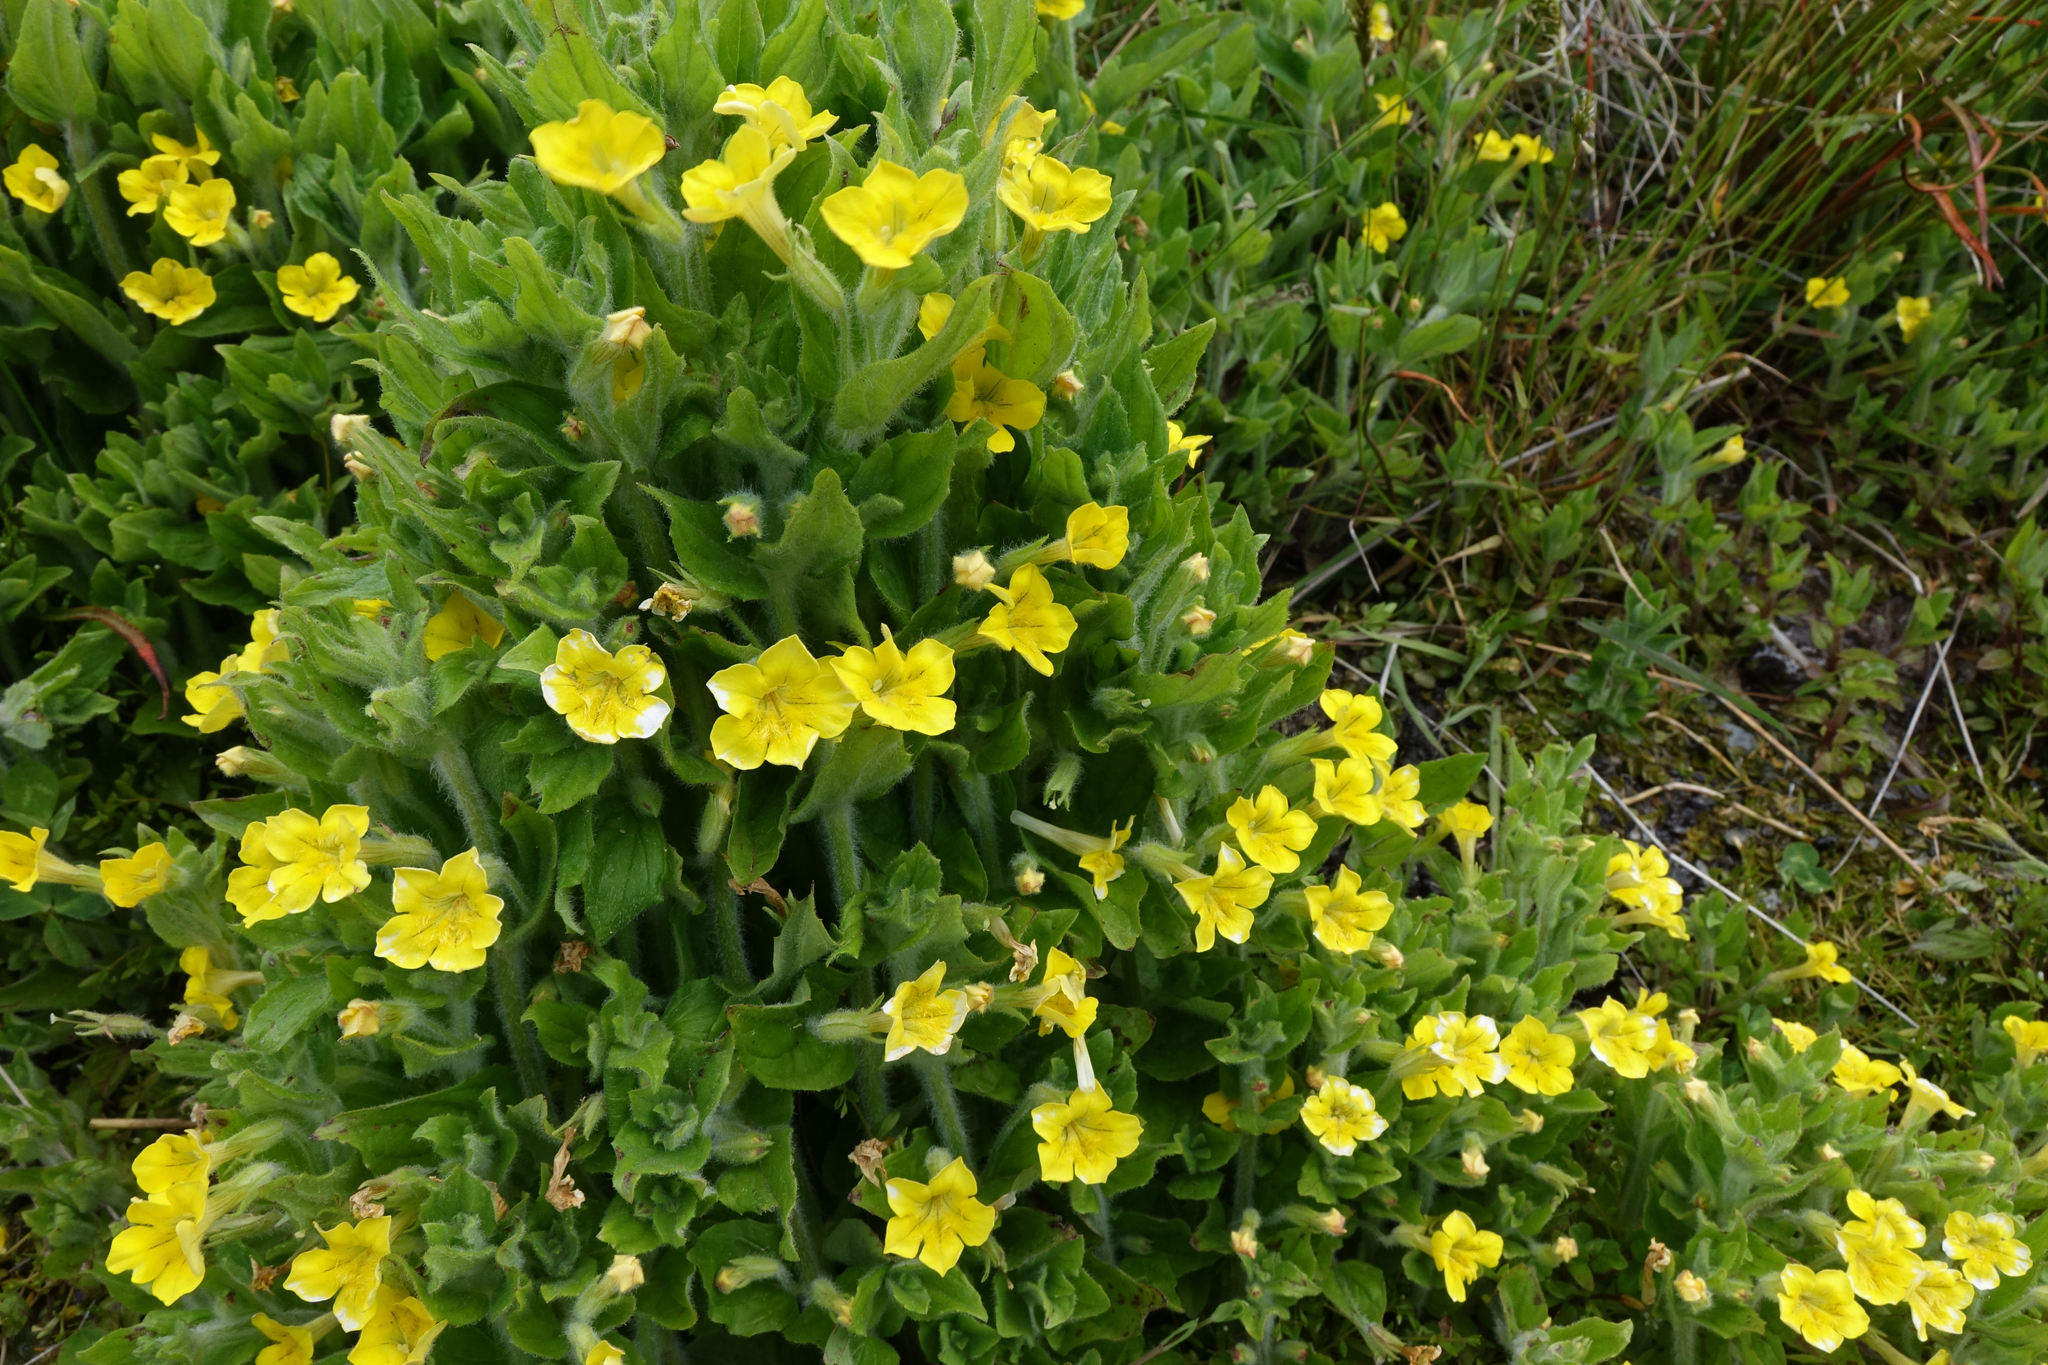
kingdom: Plantae
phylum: Tracheophyta
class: Magnoliopsida
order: Lamiales
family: Phrymaceae
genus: Erythranthe
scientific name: Erythranthe moschata
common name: Muskflower
